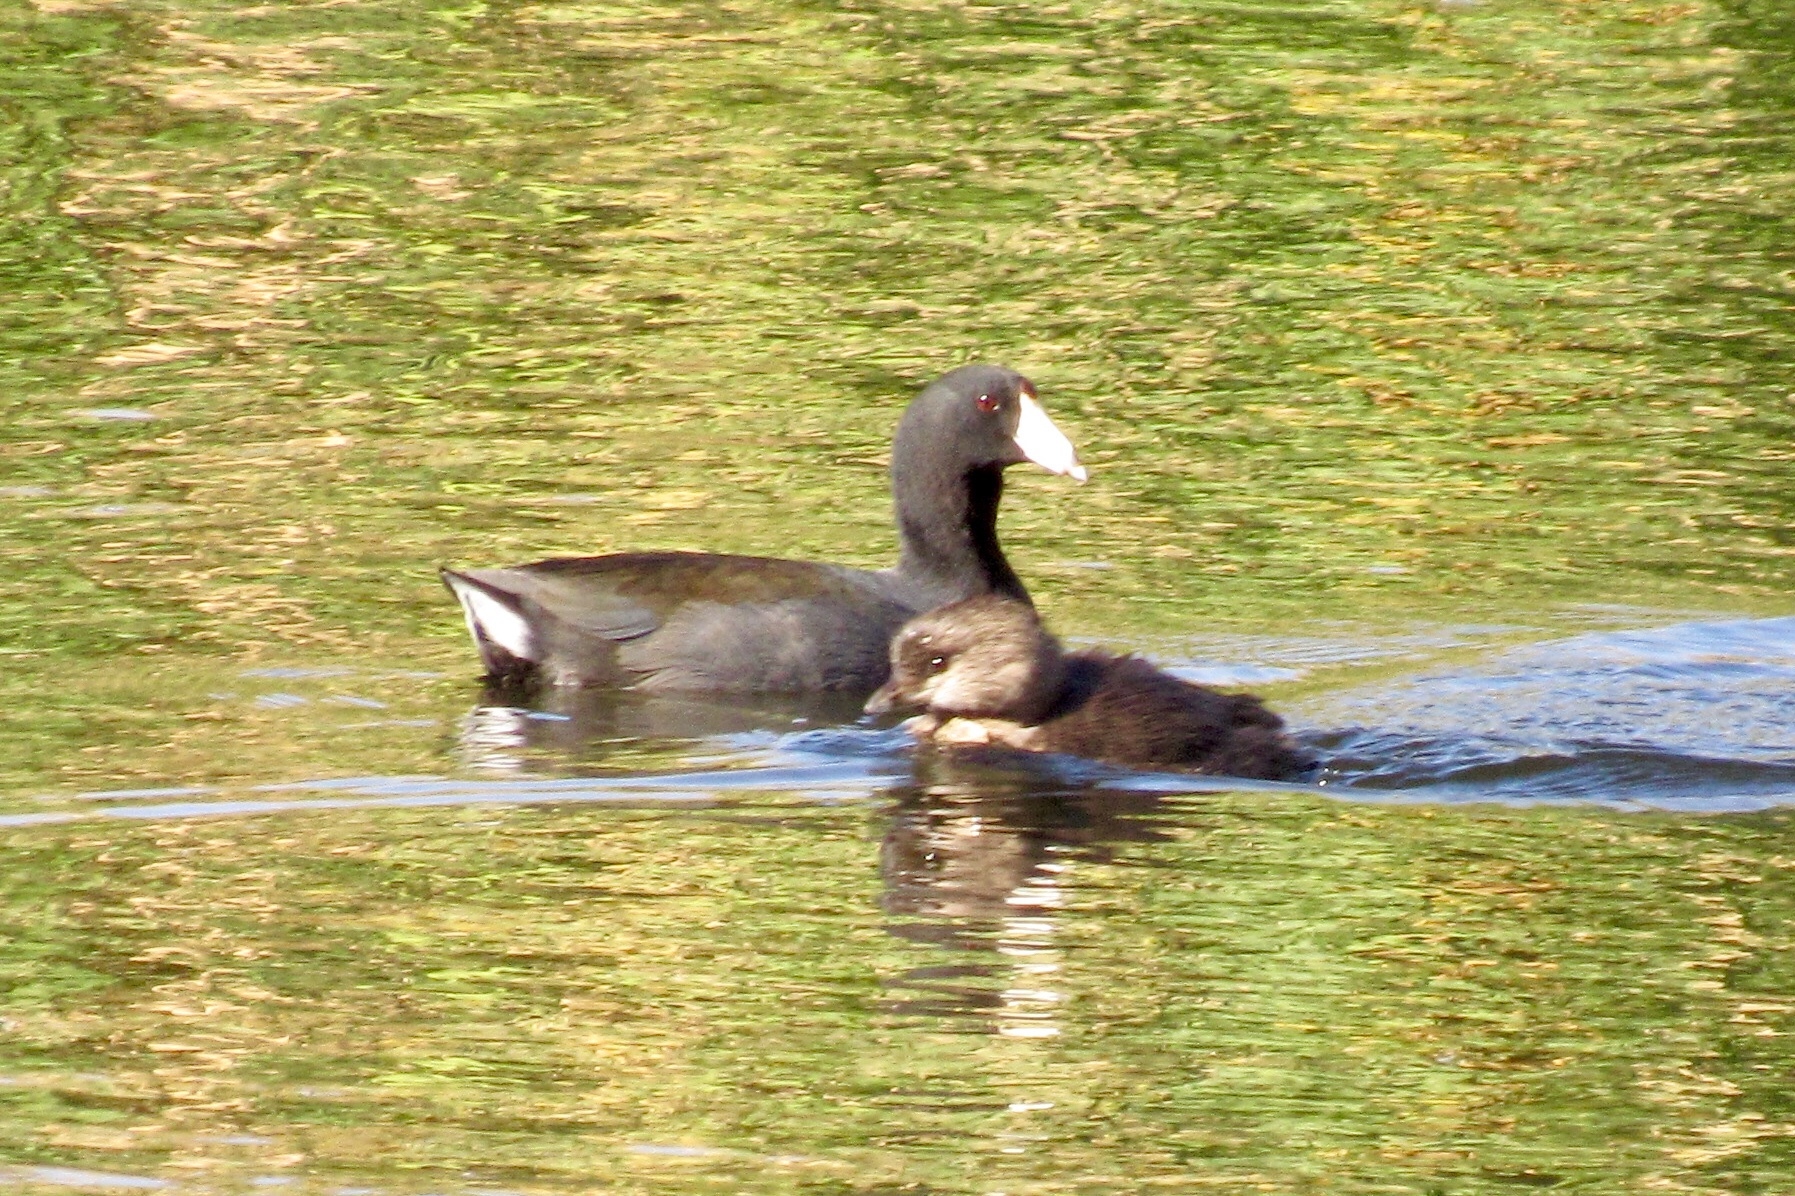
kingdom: Animalia
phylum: Chordata
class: Aves
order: Gruiformes
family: Rallidae
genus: Fulica
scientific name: Fulica americana
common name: American coot
